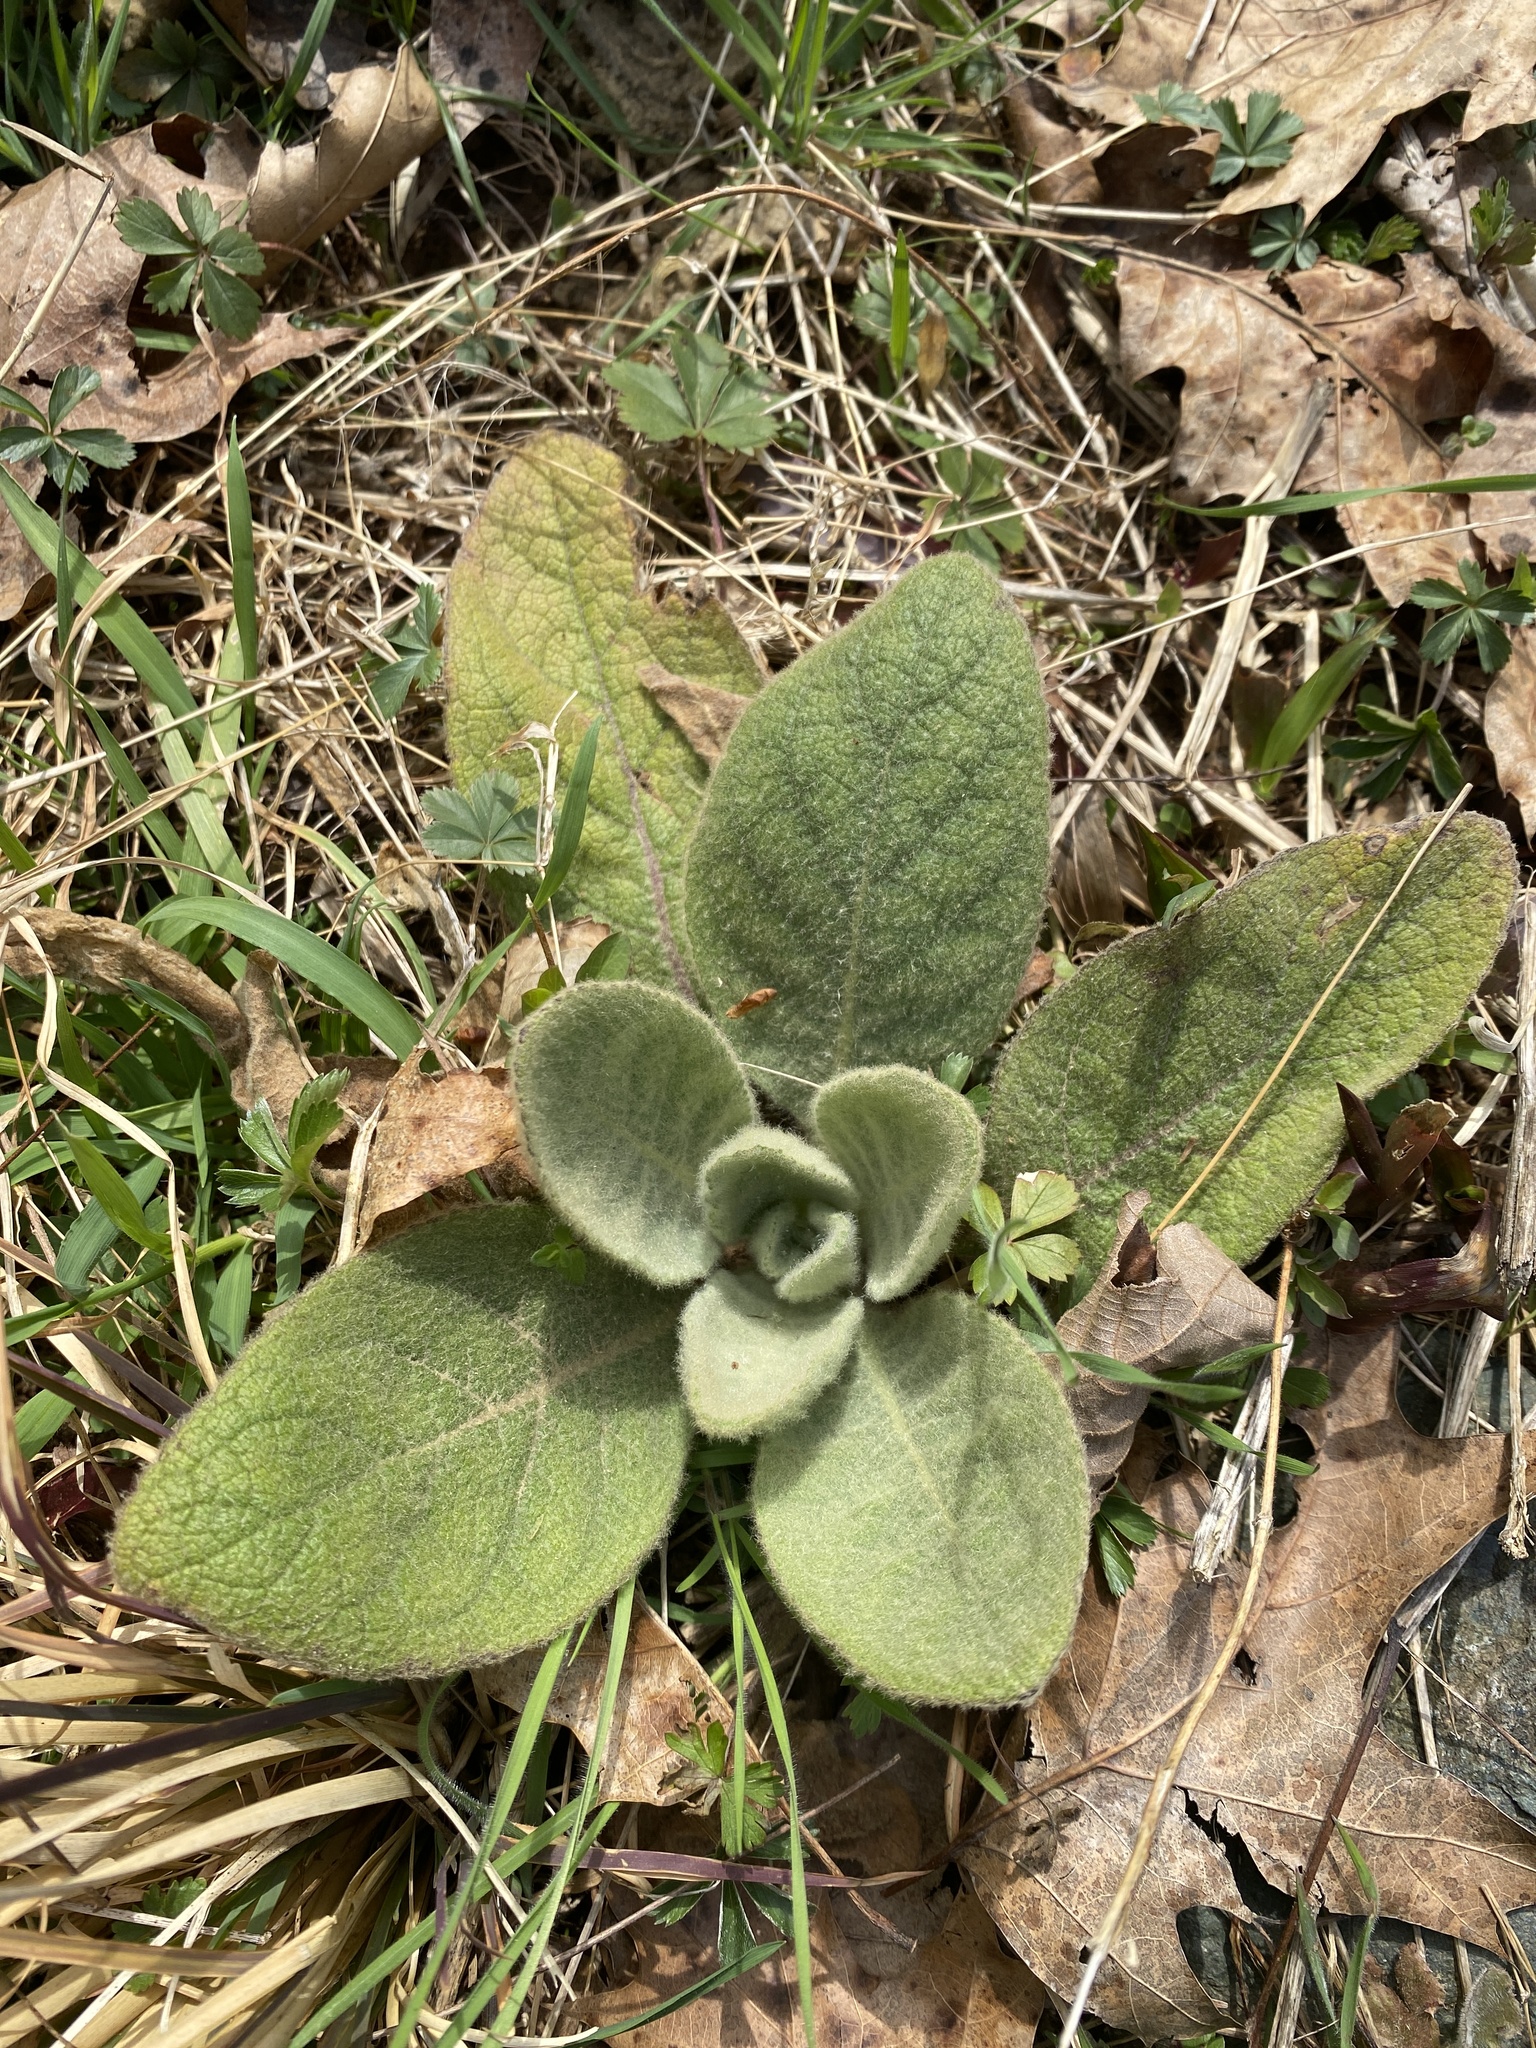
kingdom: Plantae
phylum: Tracheophyta
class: Magnoliopsida
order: Lamiales
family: Scrophulariaceae
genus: Verbascum
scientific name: Verbascum thapsus
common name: Common mullein
